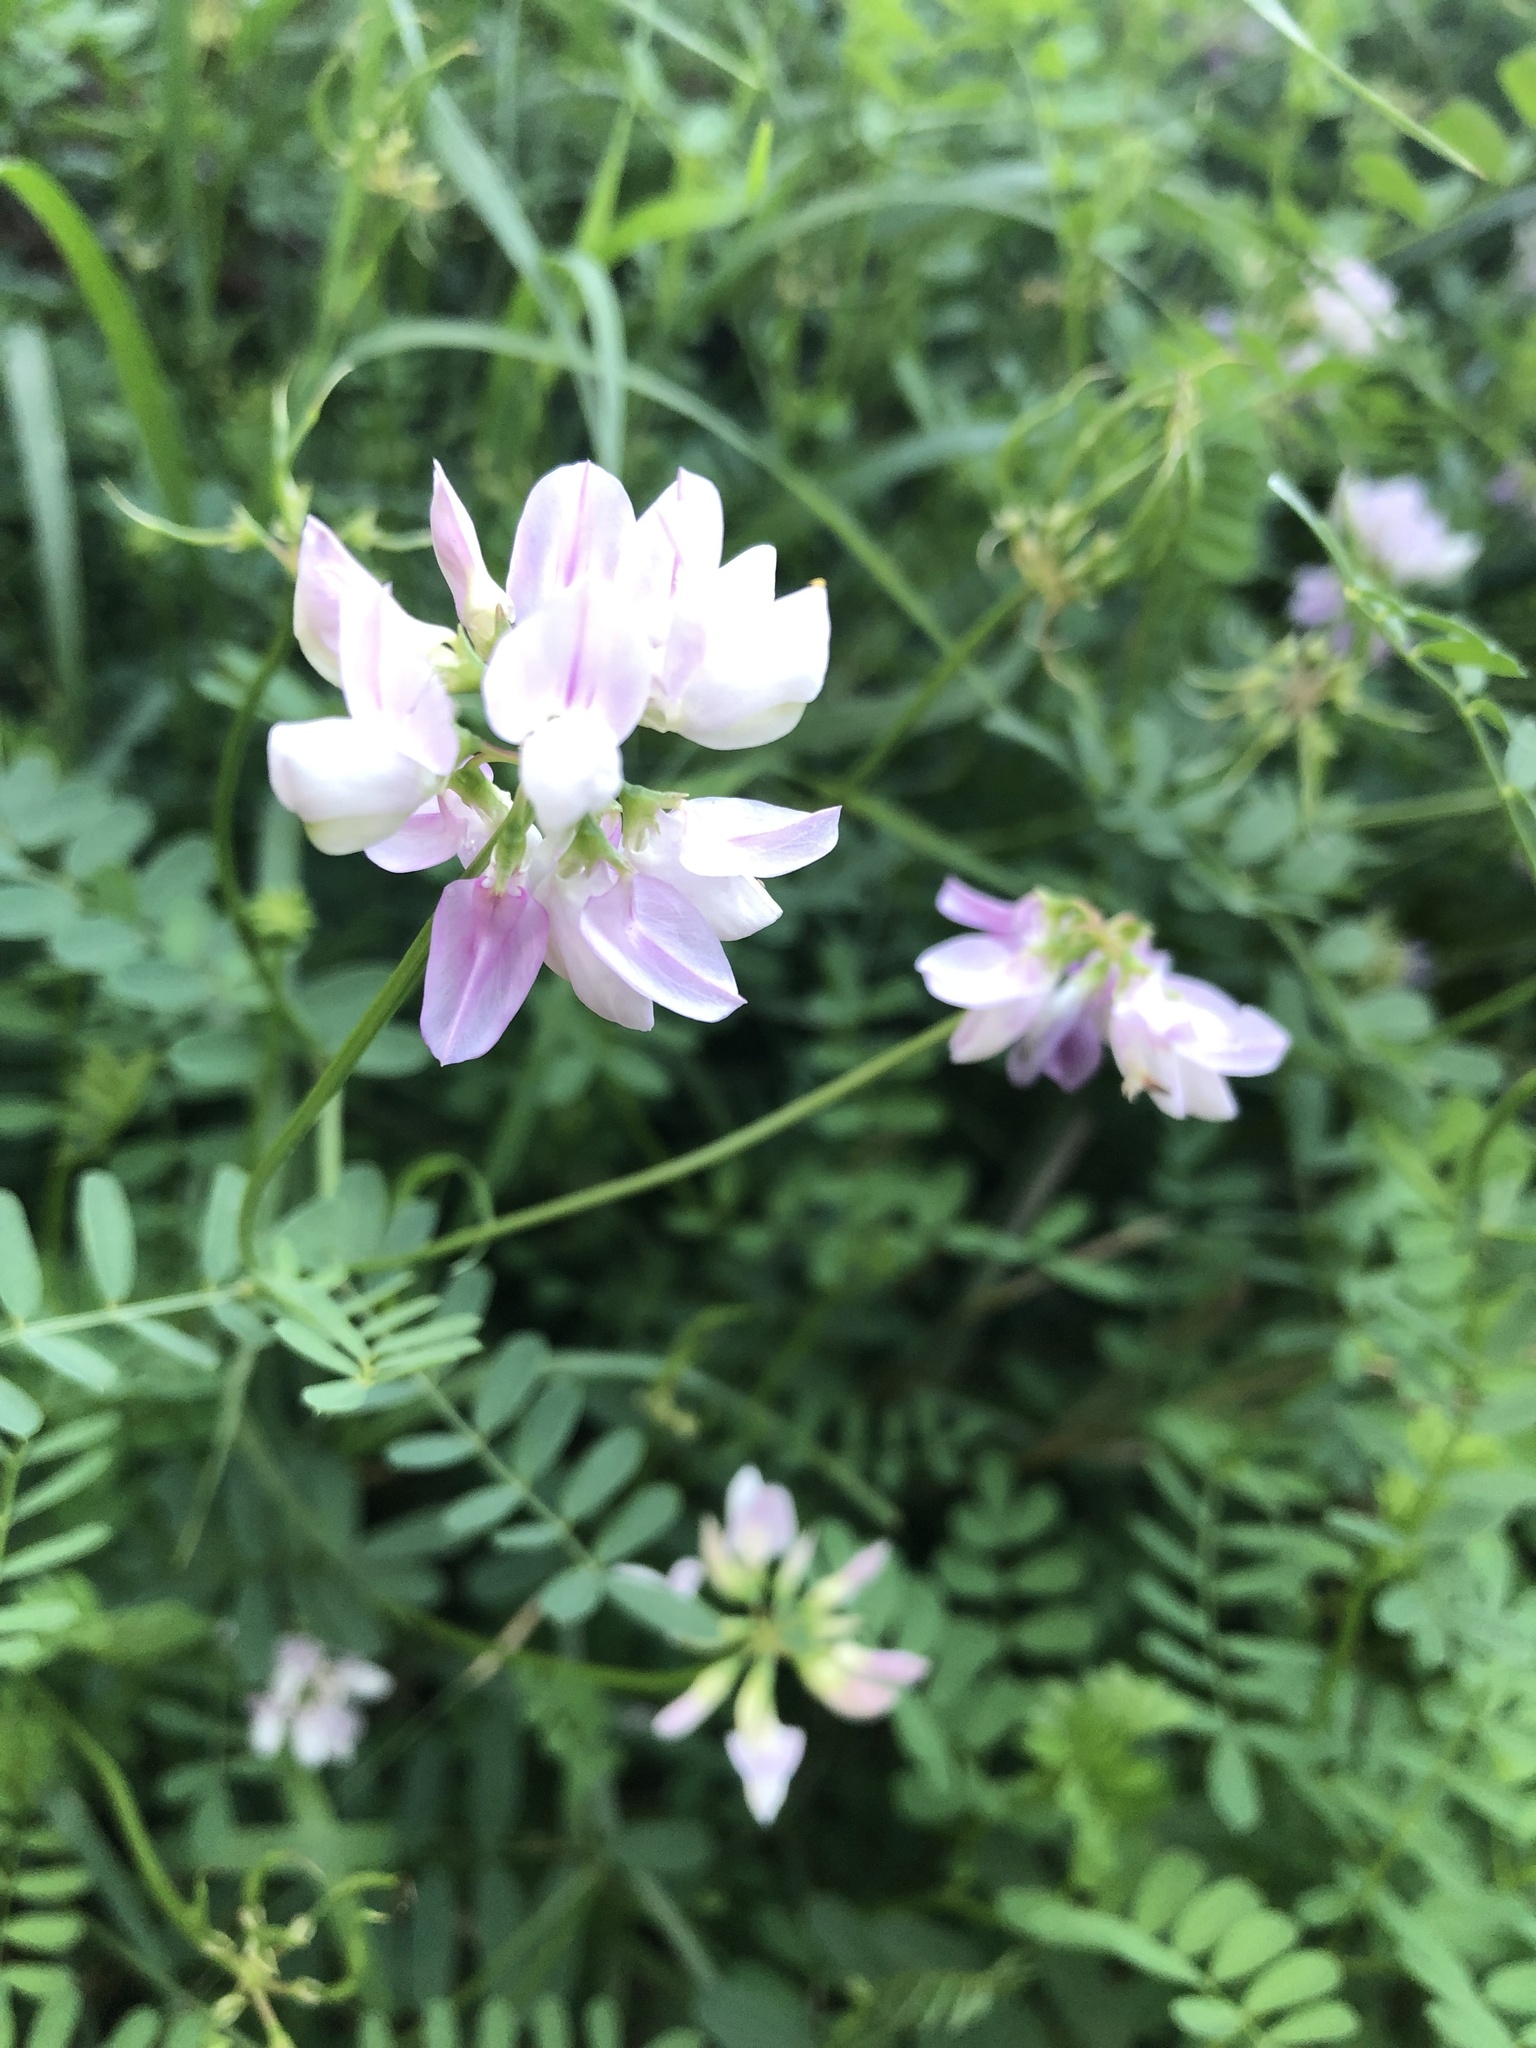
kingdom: Plantae
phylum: Tracheophyta
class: Magnoliopsida
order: Fabales
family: Fabaceae
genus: Coronilla
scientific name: Coronilla varia
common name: Crownvetch
